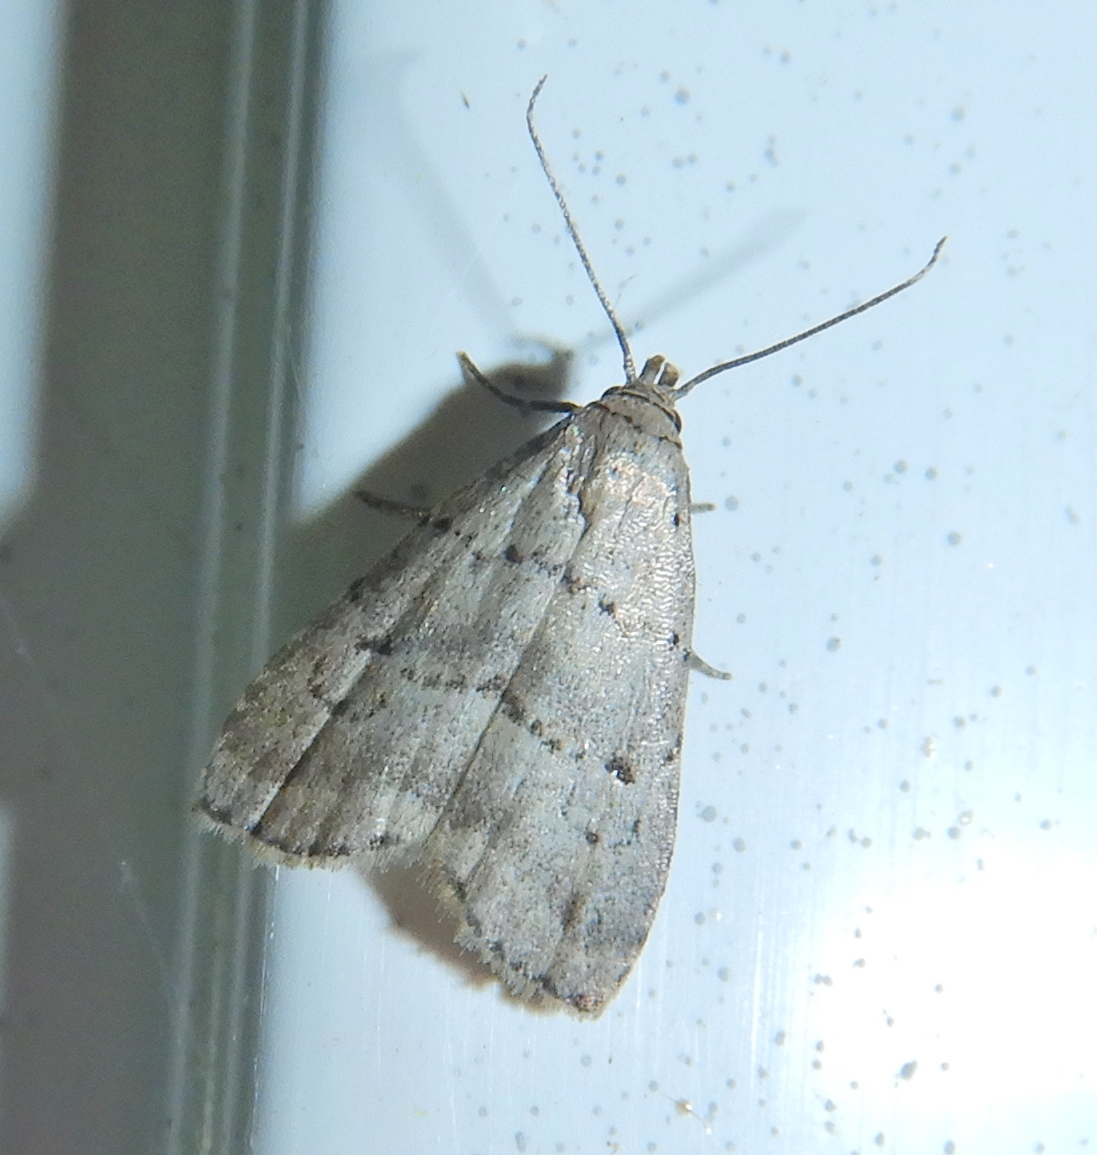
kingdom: Animalia
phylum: Arthropoda
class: Insecta
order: Lepidoptera
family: Erebidae
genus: Hypenodes
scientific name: Hypenodes fractilinea
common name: Broken-line hypenodes moth
